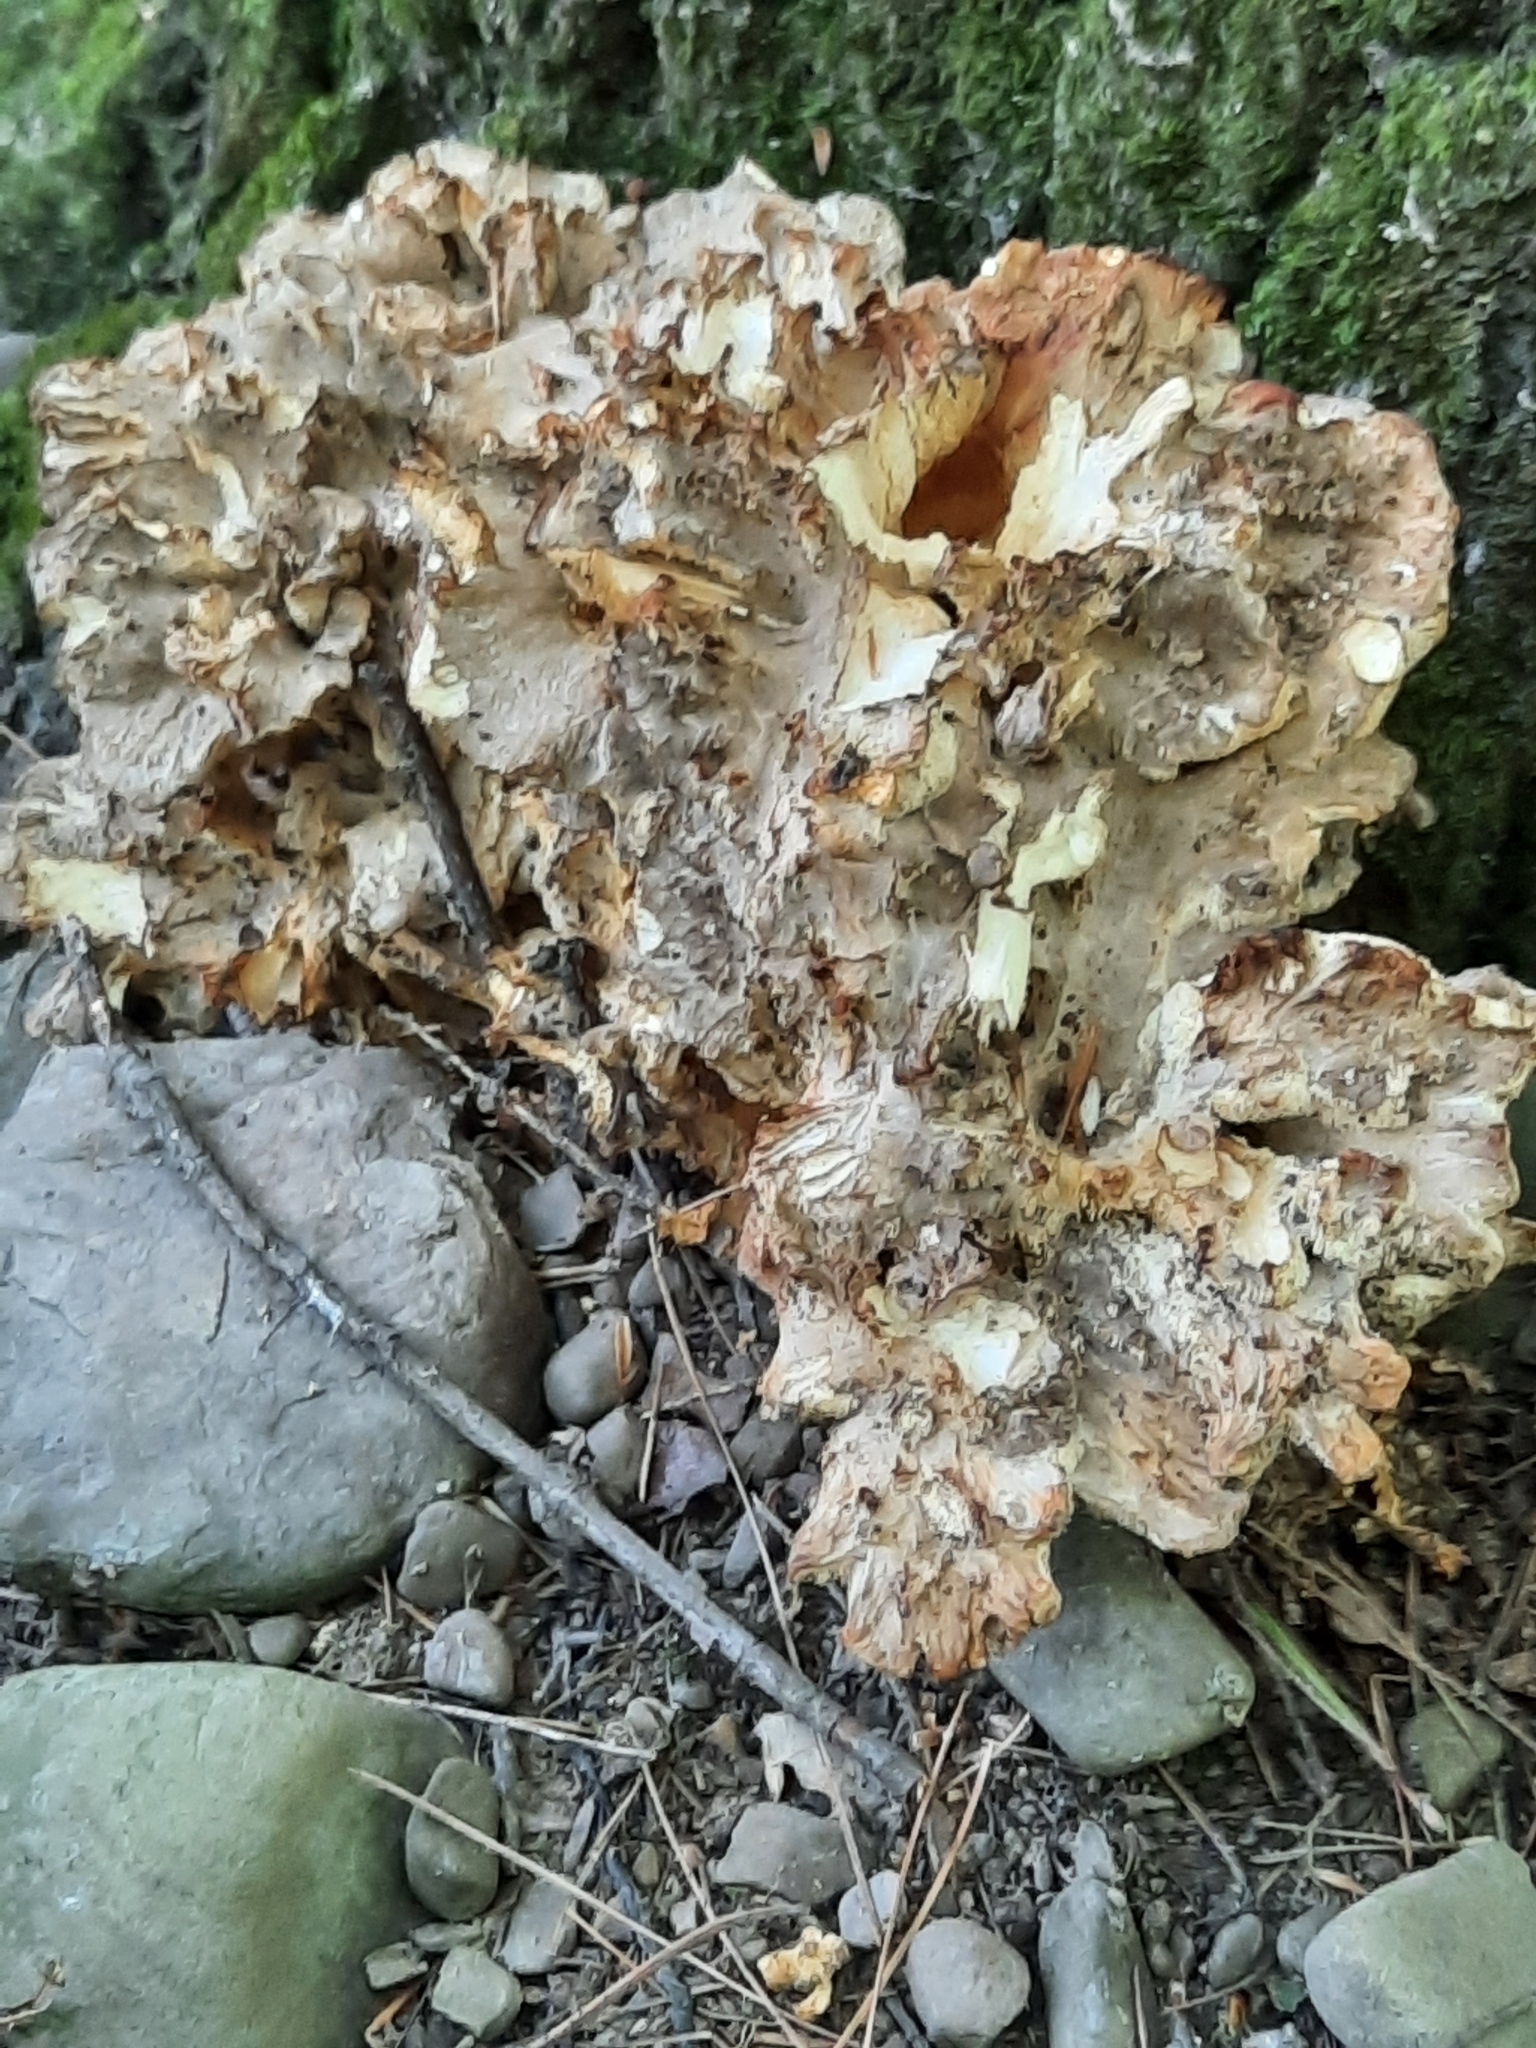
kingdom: Fungi
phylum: Basidiomycota
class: Agaricomycetes
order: Polyporales
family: Grifolaceae
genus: Grifola
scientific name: Grifola frondosa
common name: Hen of the woods
